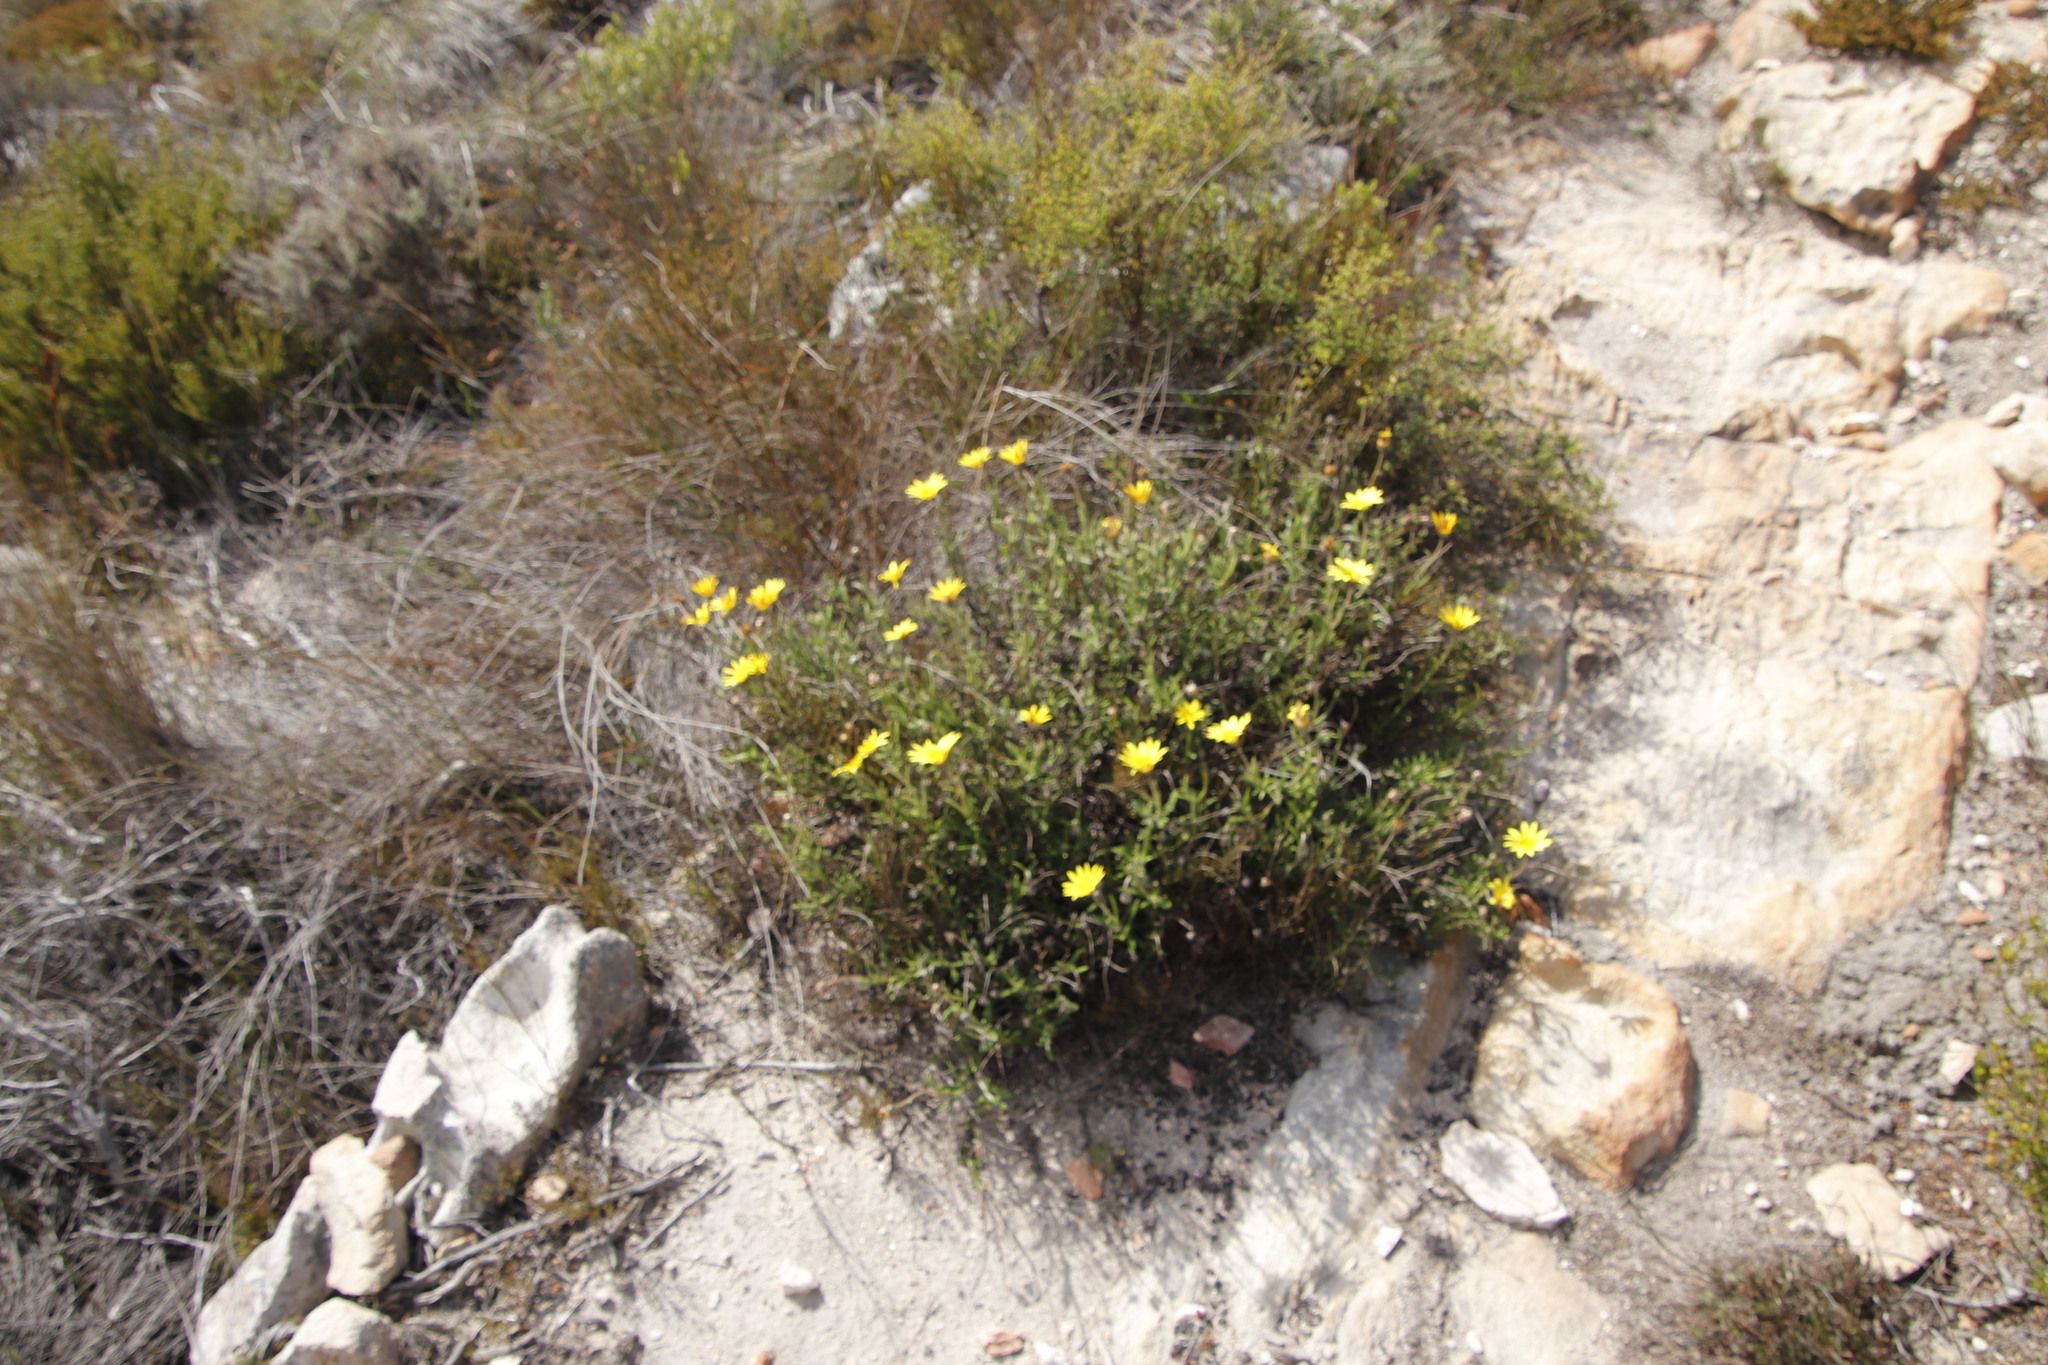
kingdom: Plantae
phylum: Tracheophyta
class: Magnoliopsida
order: Asterales
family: Asteraceae
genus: Arctotis
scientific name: Arctotis scabra
